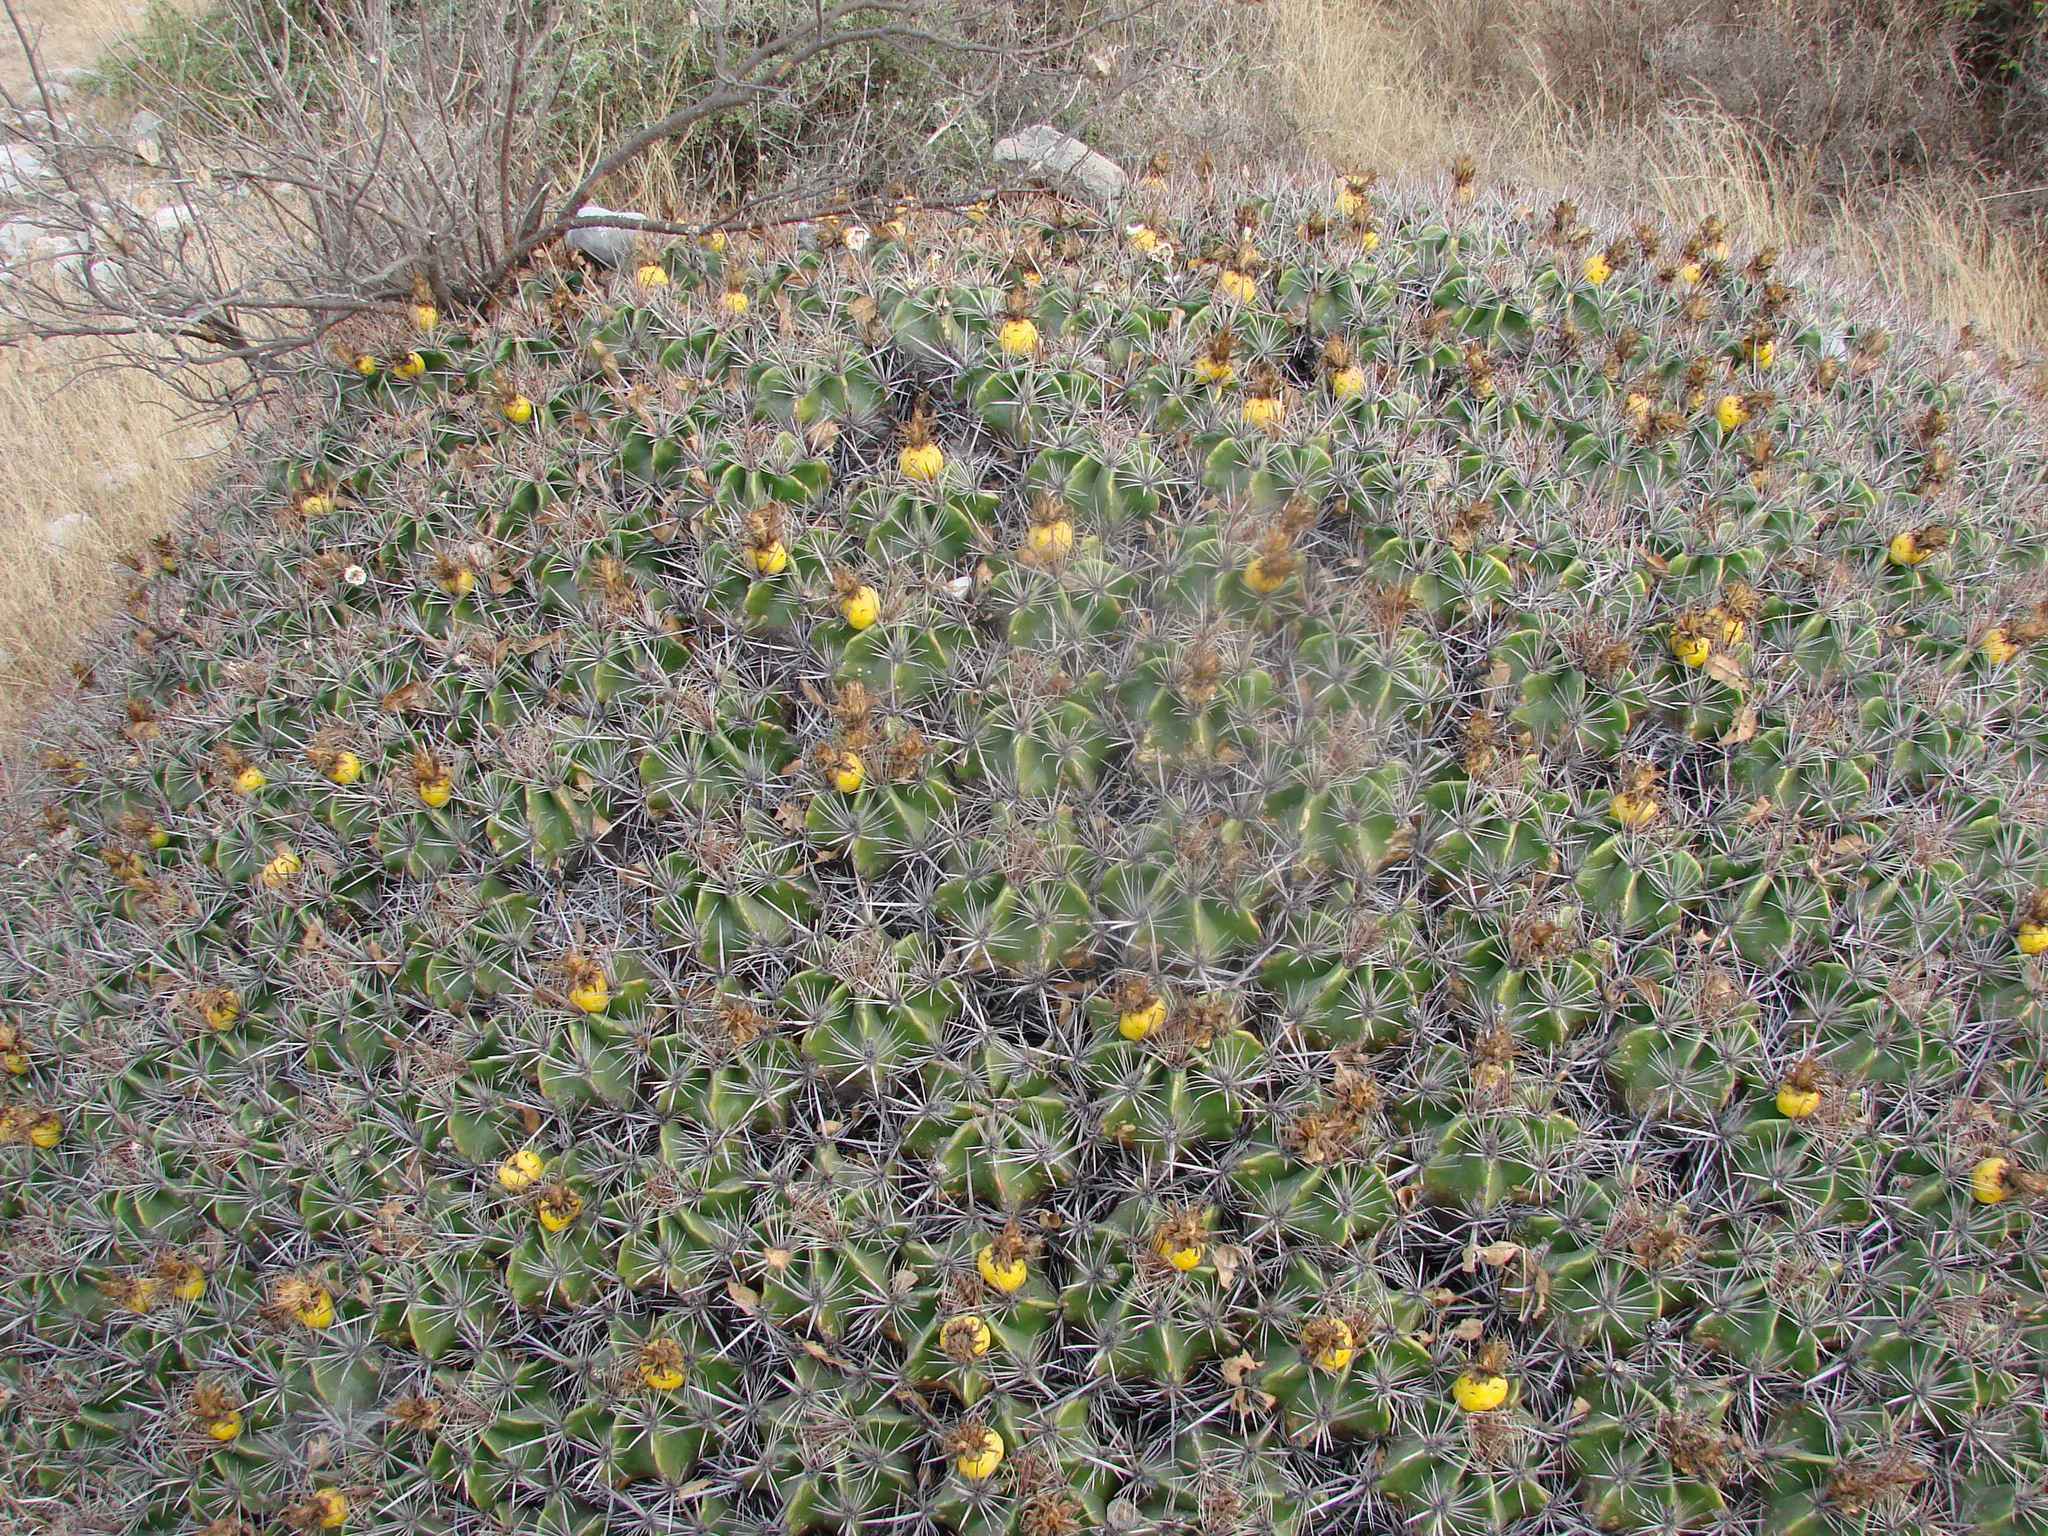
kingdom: Plantae
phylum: Tracheophyta
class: Magnoliopsida
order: Caryophyllales
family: Cactaceae
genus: Ferocactus
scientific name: Ferocactus robustus
